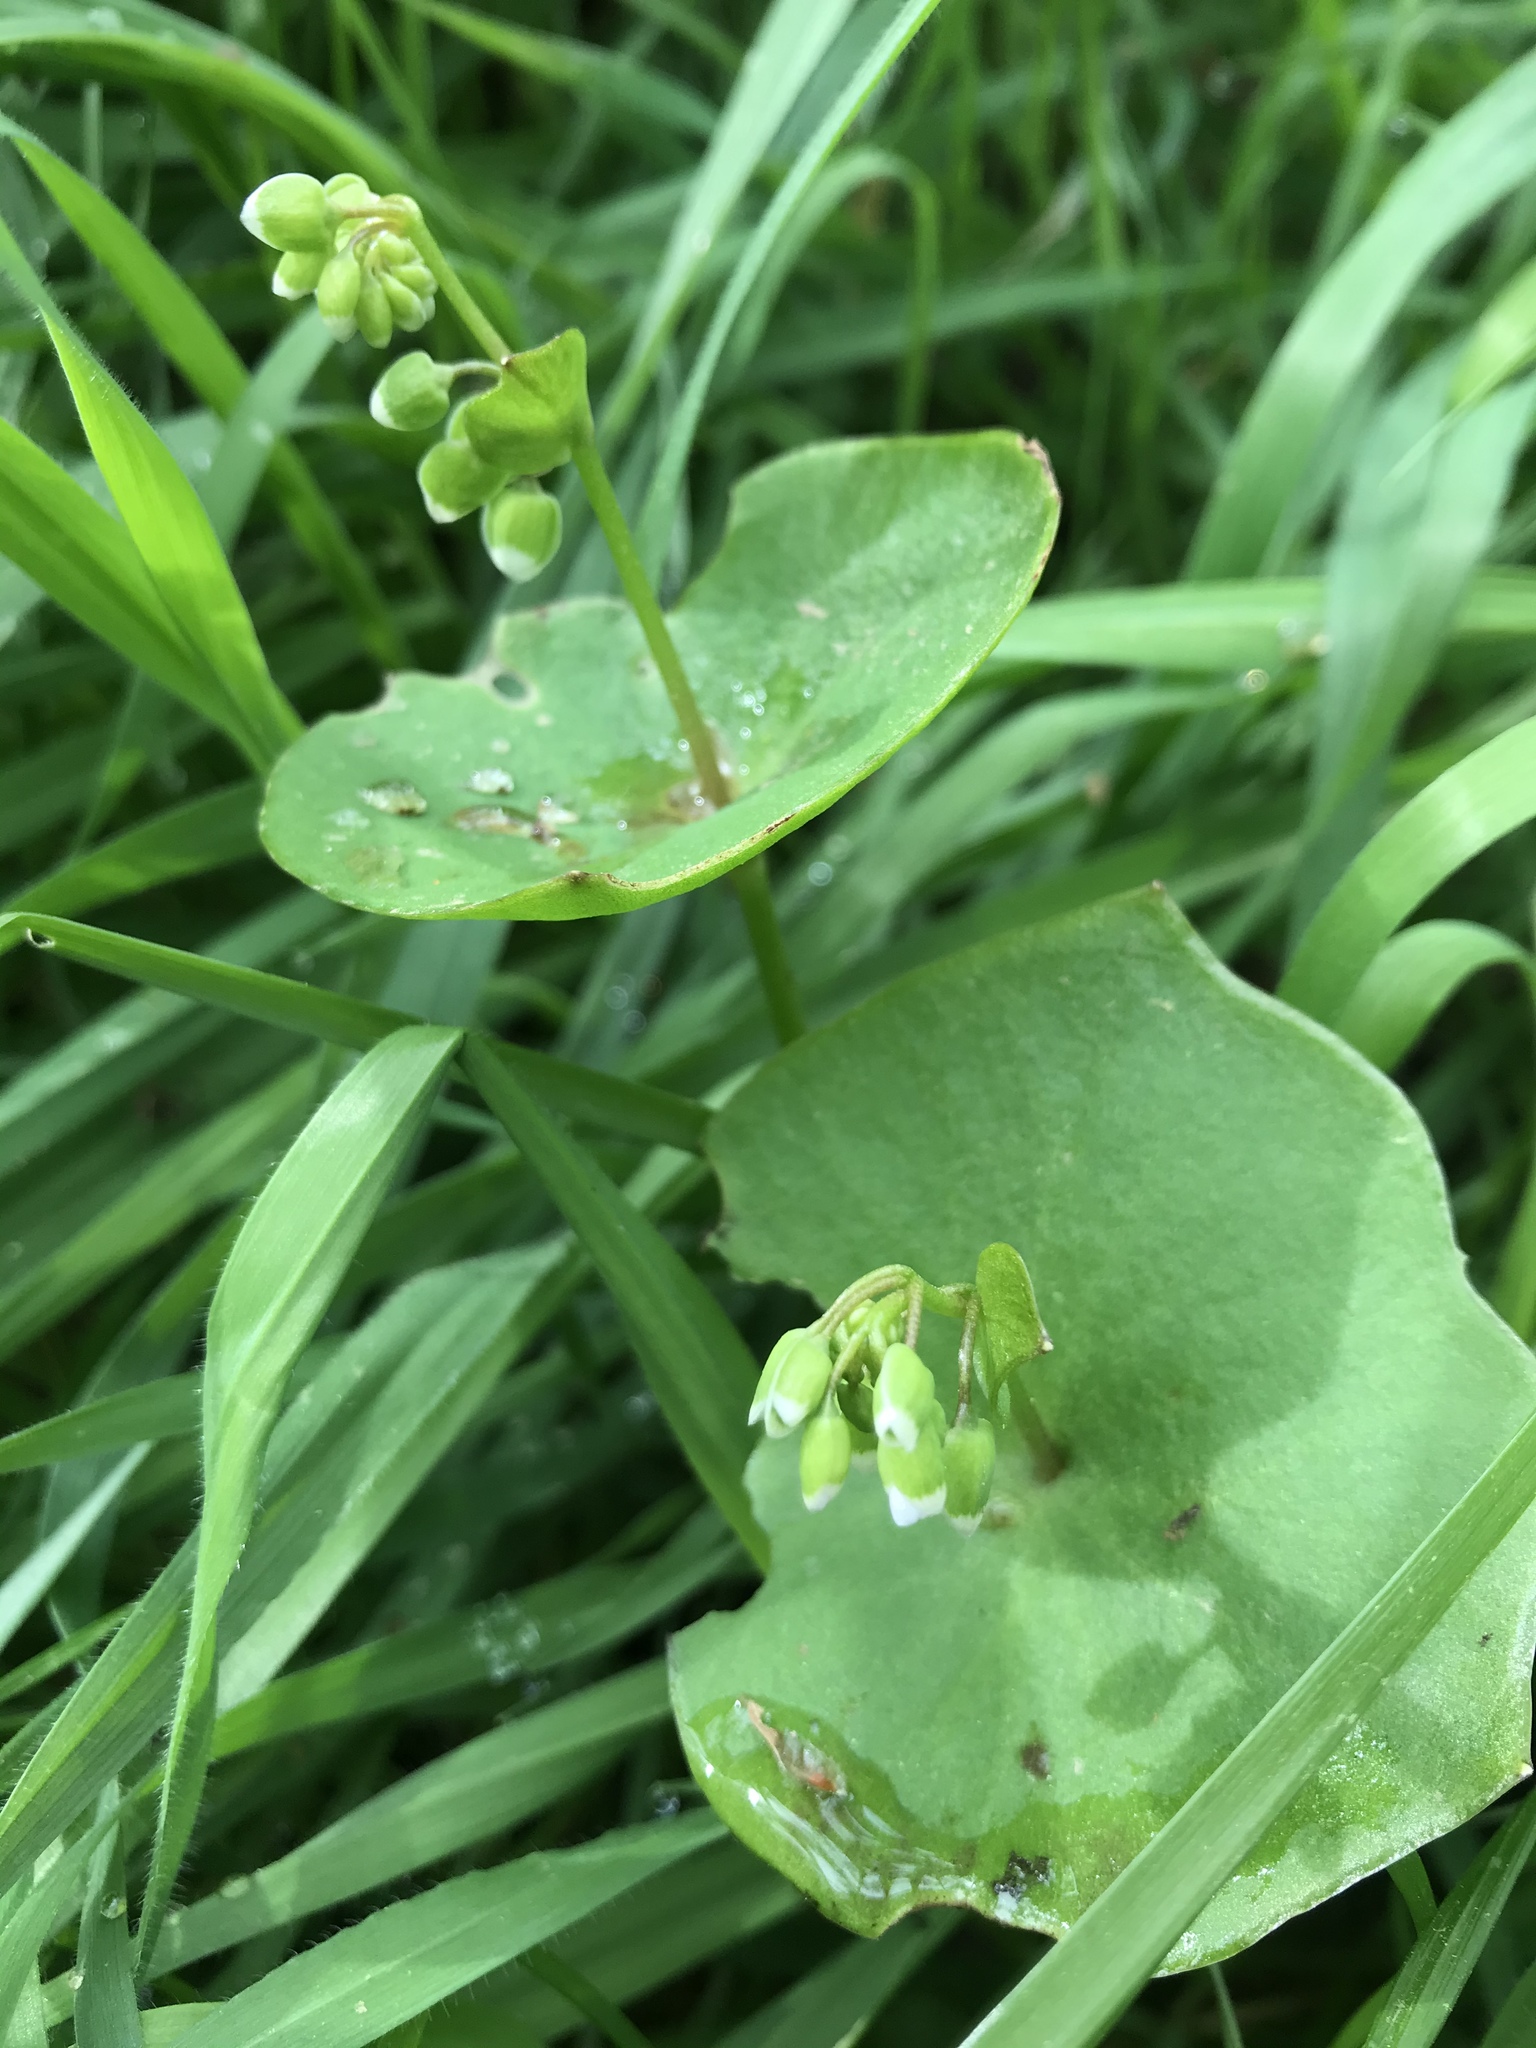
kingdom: Plantae
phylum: Tracheophyta
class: Magnoliopsida
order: Caryophyllales
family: Montiaceae
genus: Claytonia
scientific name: Claytonia perfoliata
